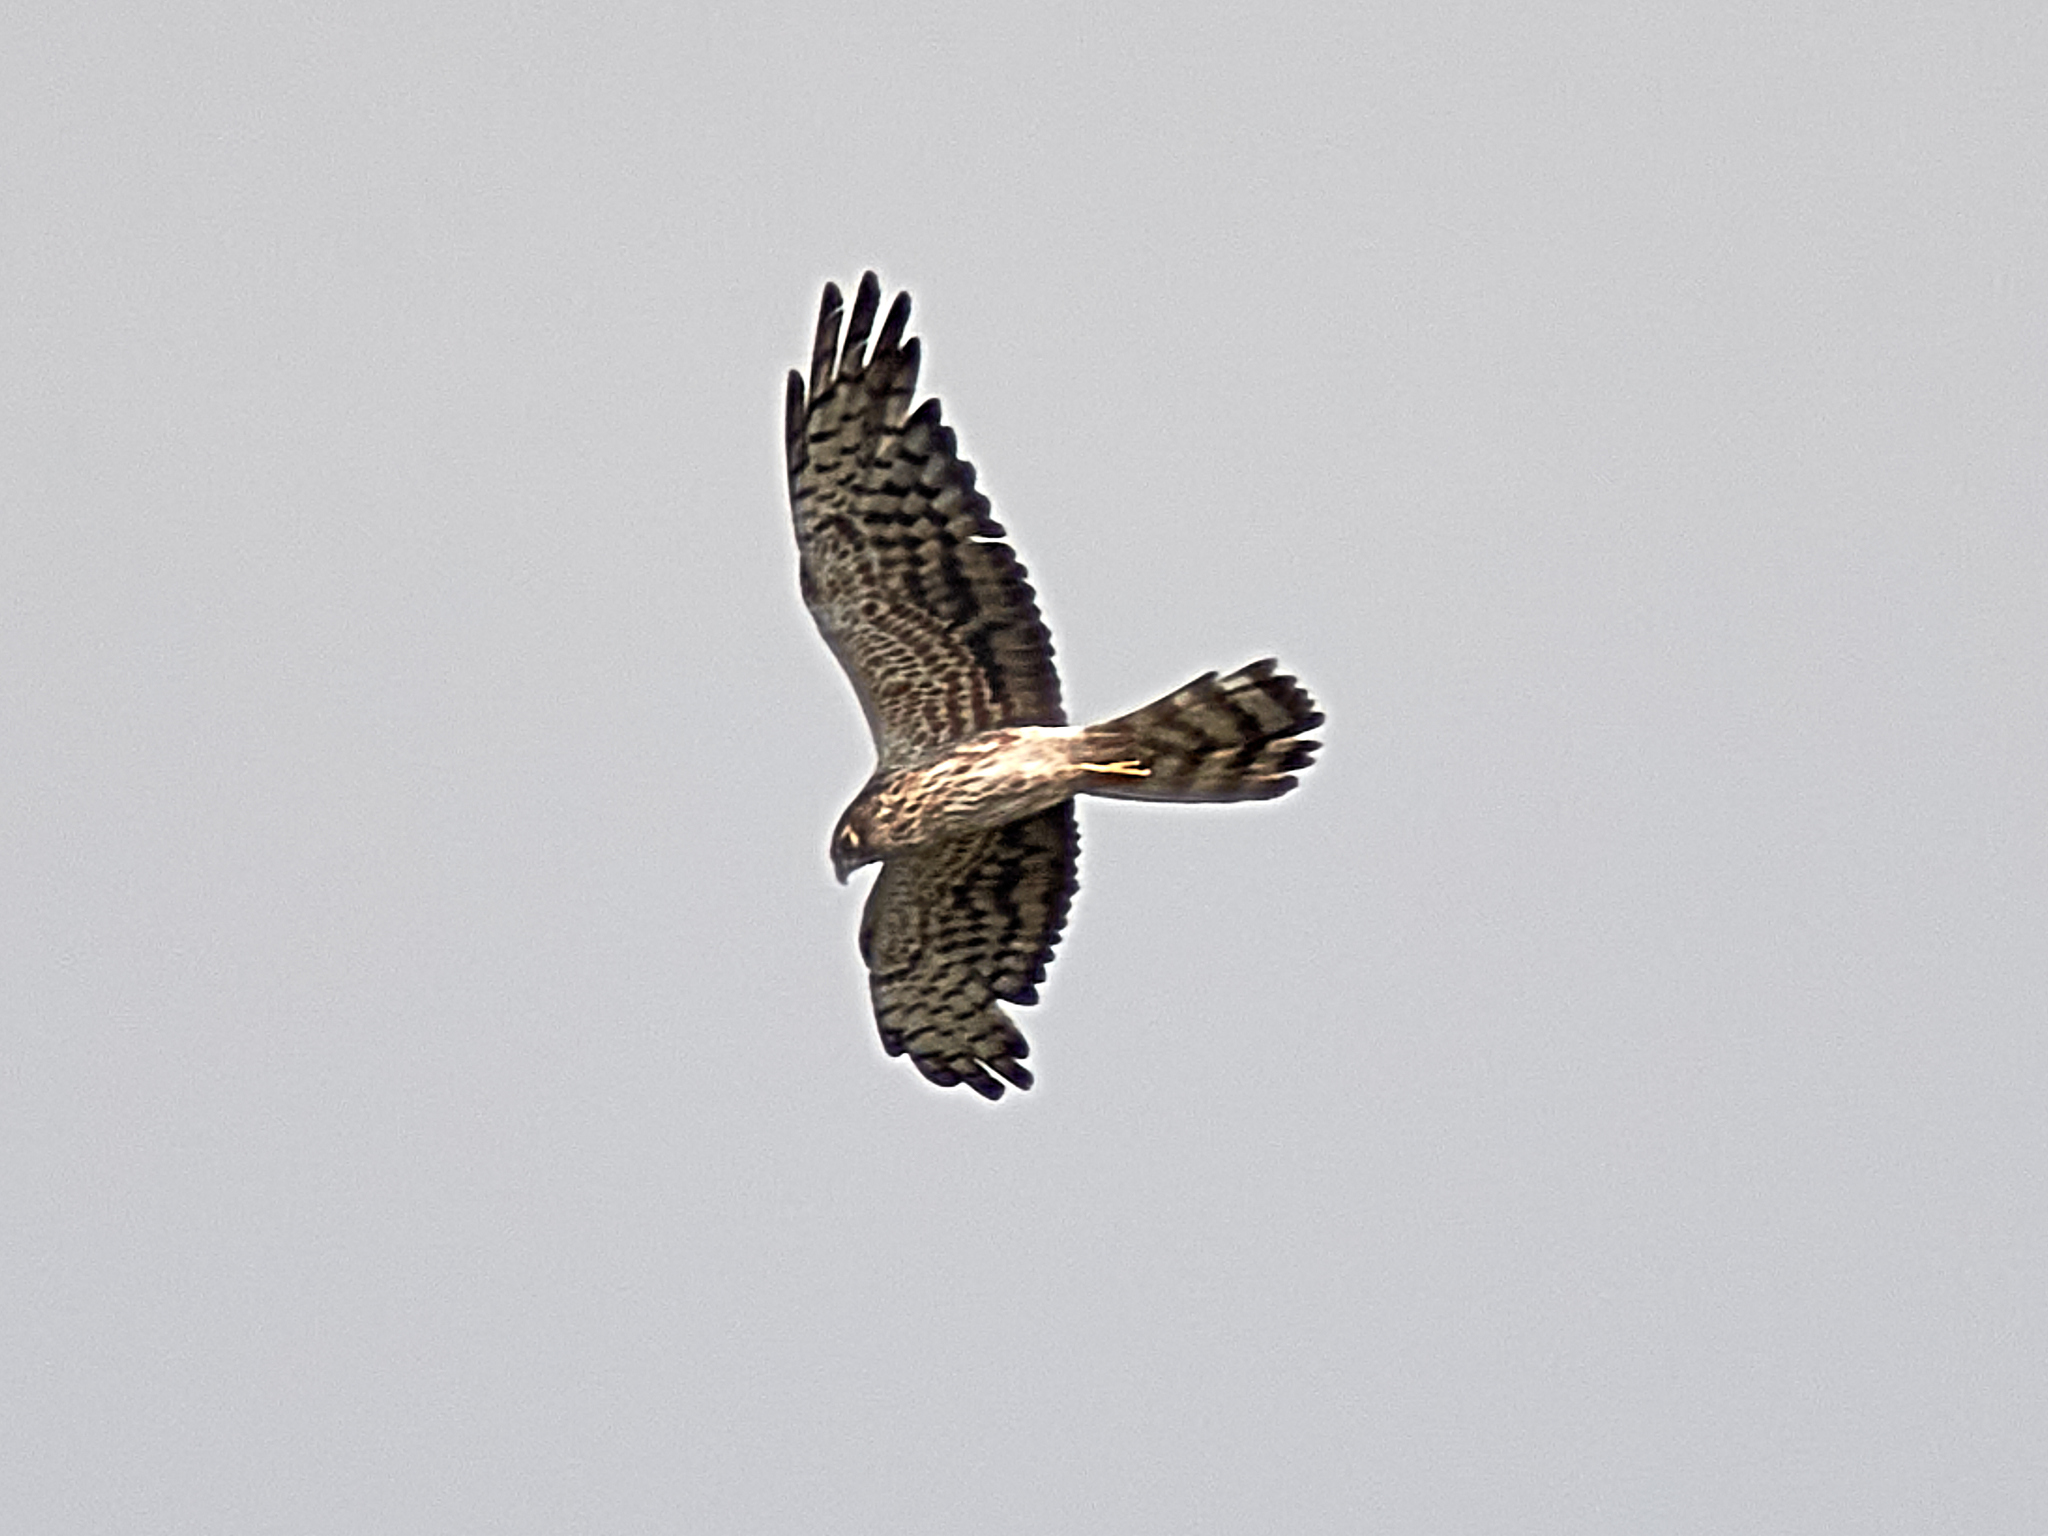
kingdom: Animalia
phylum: Chordata
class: Aves
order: Accipitriformes
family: Accipitridae
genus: Circus
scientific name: Circus pygargus
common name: Montagu's harrier
